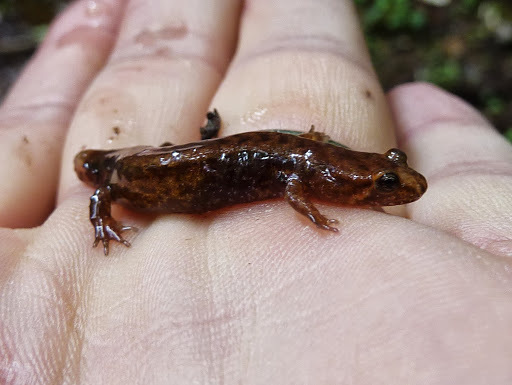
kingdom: Animalia
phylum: Chordata
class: Amphibia
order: Caudata
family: Plethodontidae
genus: Desmognathus
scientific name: Desmognathus ochrophaeus
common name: Allegheny mountain dusky salamander
